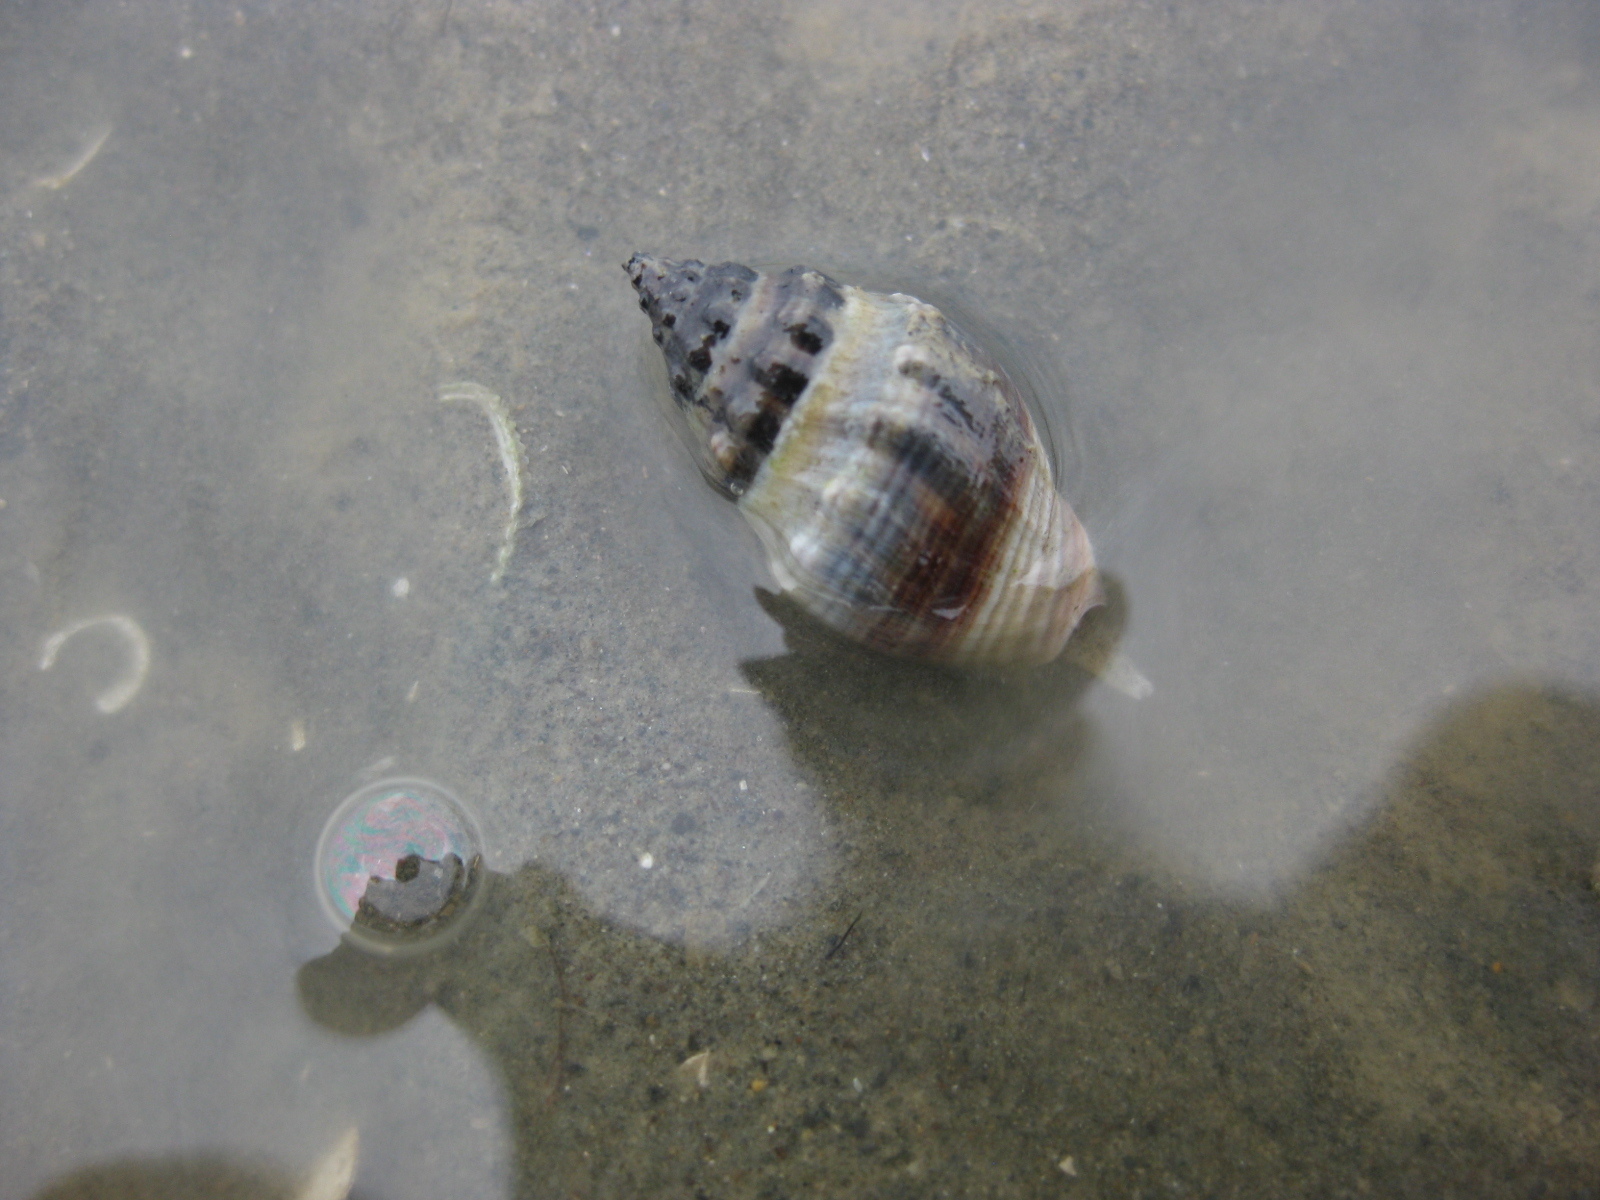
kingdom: Animalia
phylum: Mollusca
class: Gastropoda
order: Neogastropoda
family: Cominellidae
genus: Cominella
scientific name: Cominella glandiformis
